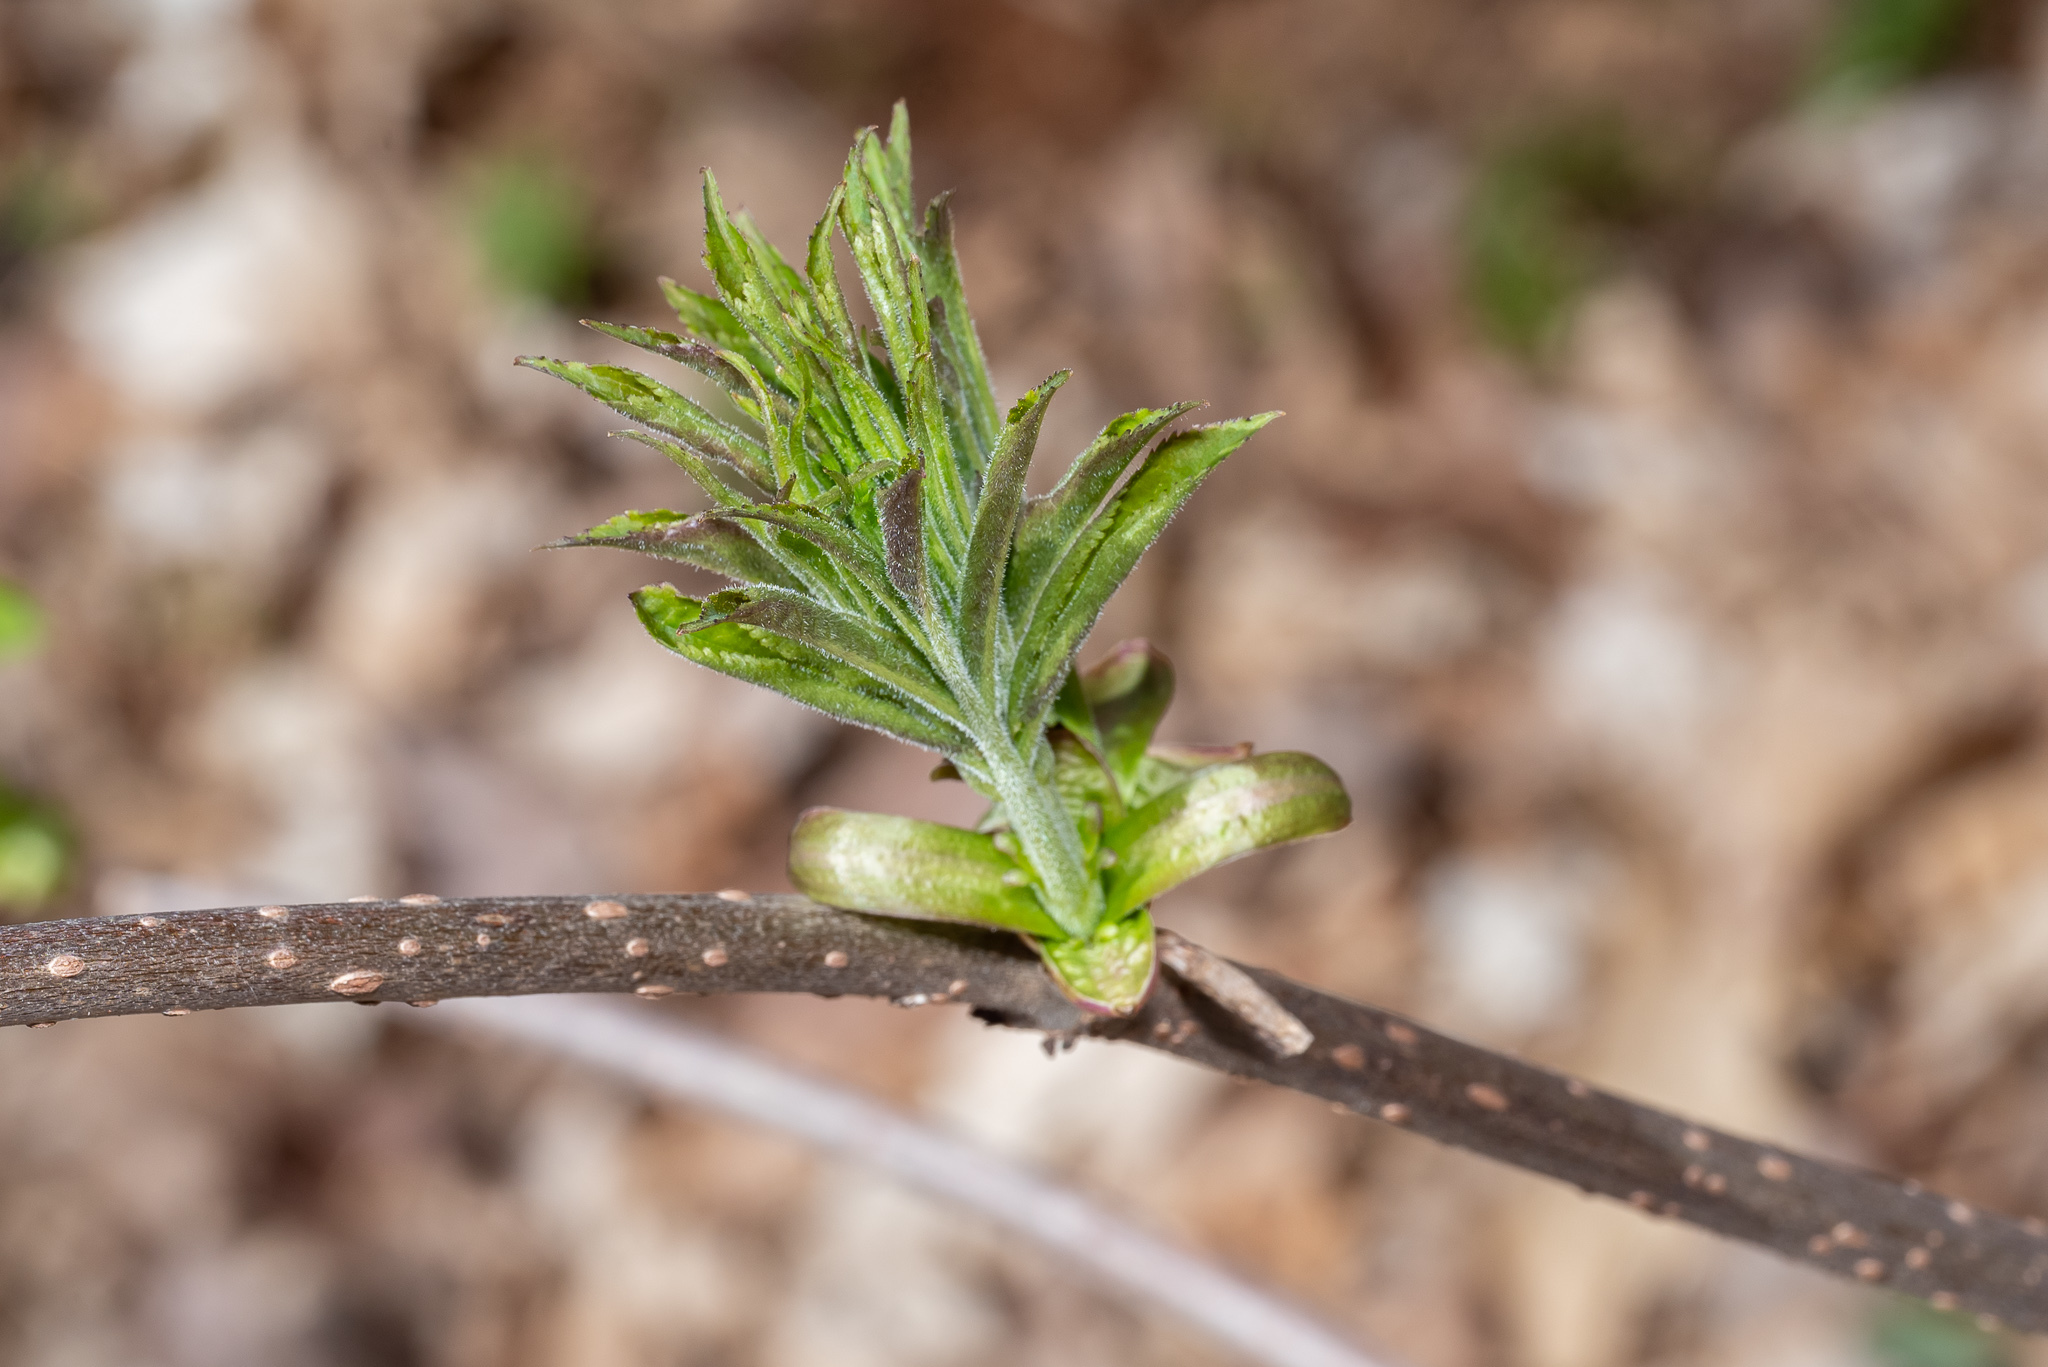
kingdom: Plantae
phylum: Tracheophyta
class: Magnoliopsida
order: Dipsacales
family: Viburnaceae
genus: Sambucus
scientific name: Sambucus racemosa
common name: Red-berried elder
